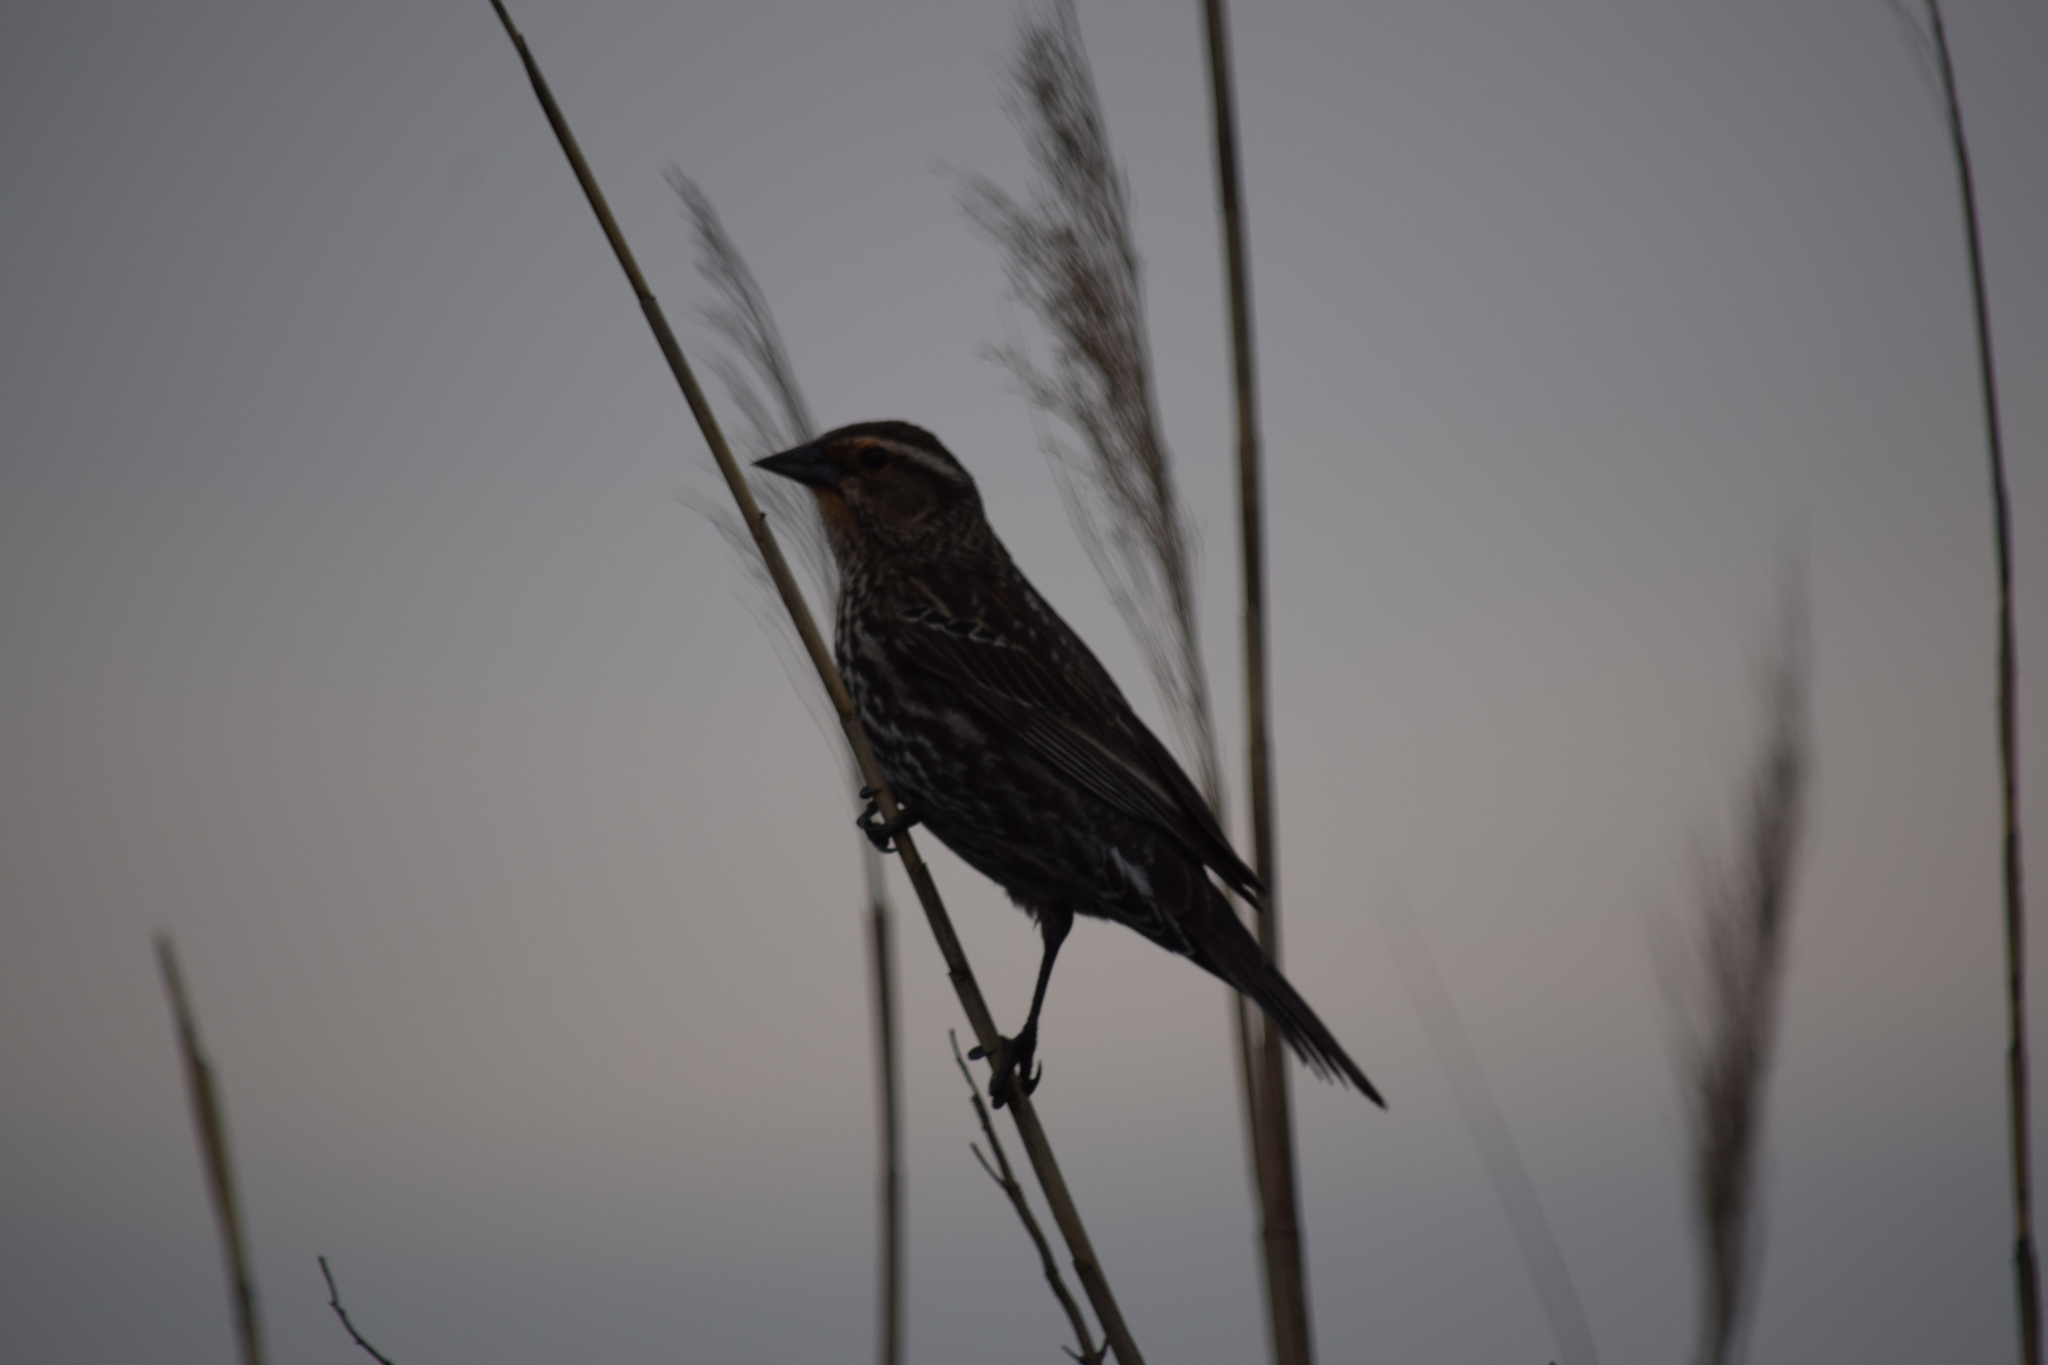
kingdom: Animalia
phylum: Chordata
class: Aves
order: Passeriformes
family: Icteridae
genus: Agelaius
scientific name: Agelaius phoeniceus
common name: Red-winged blackbird
